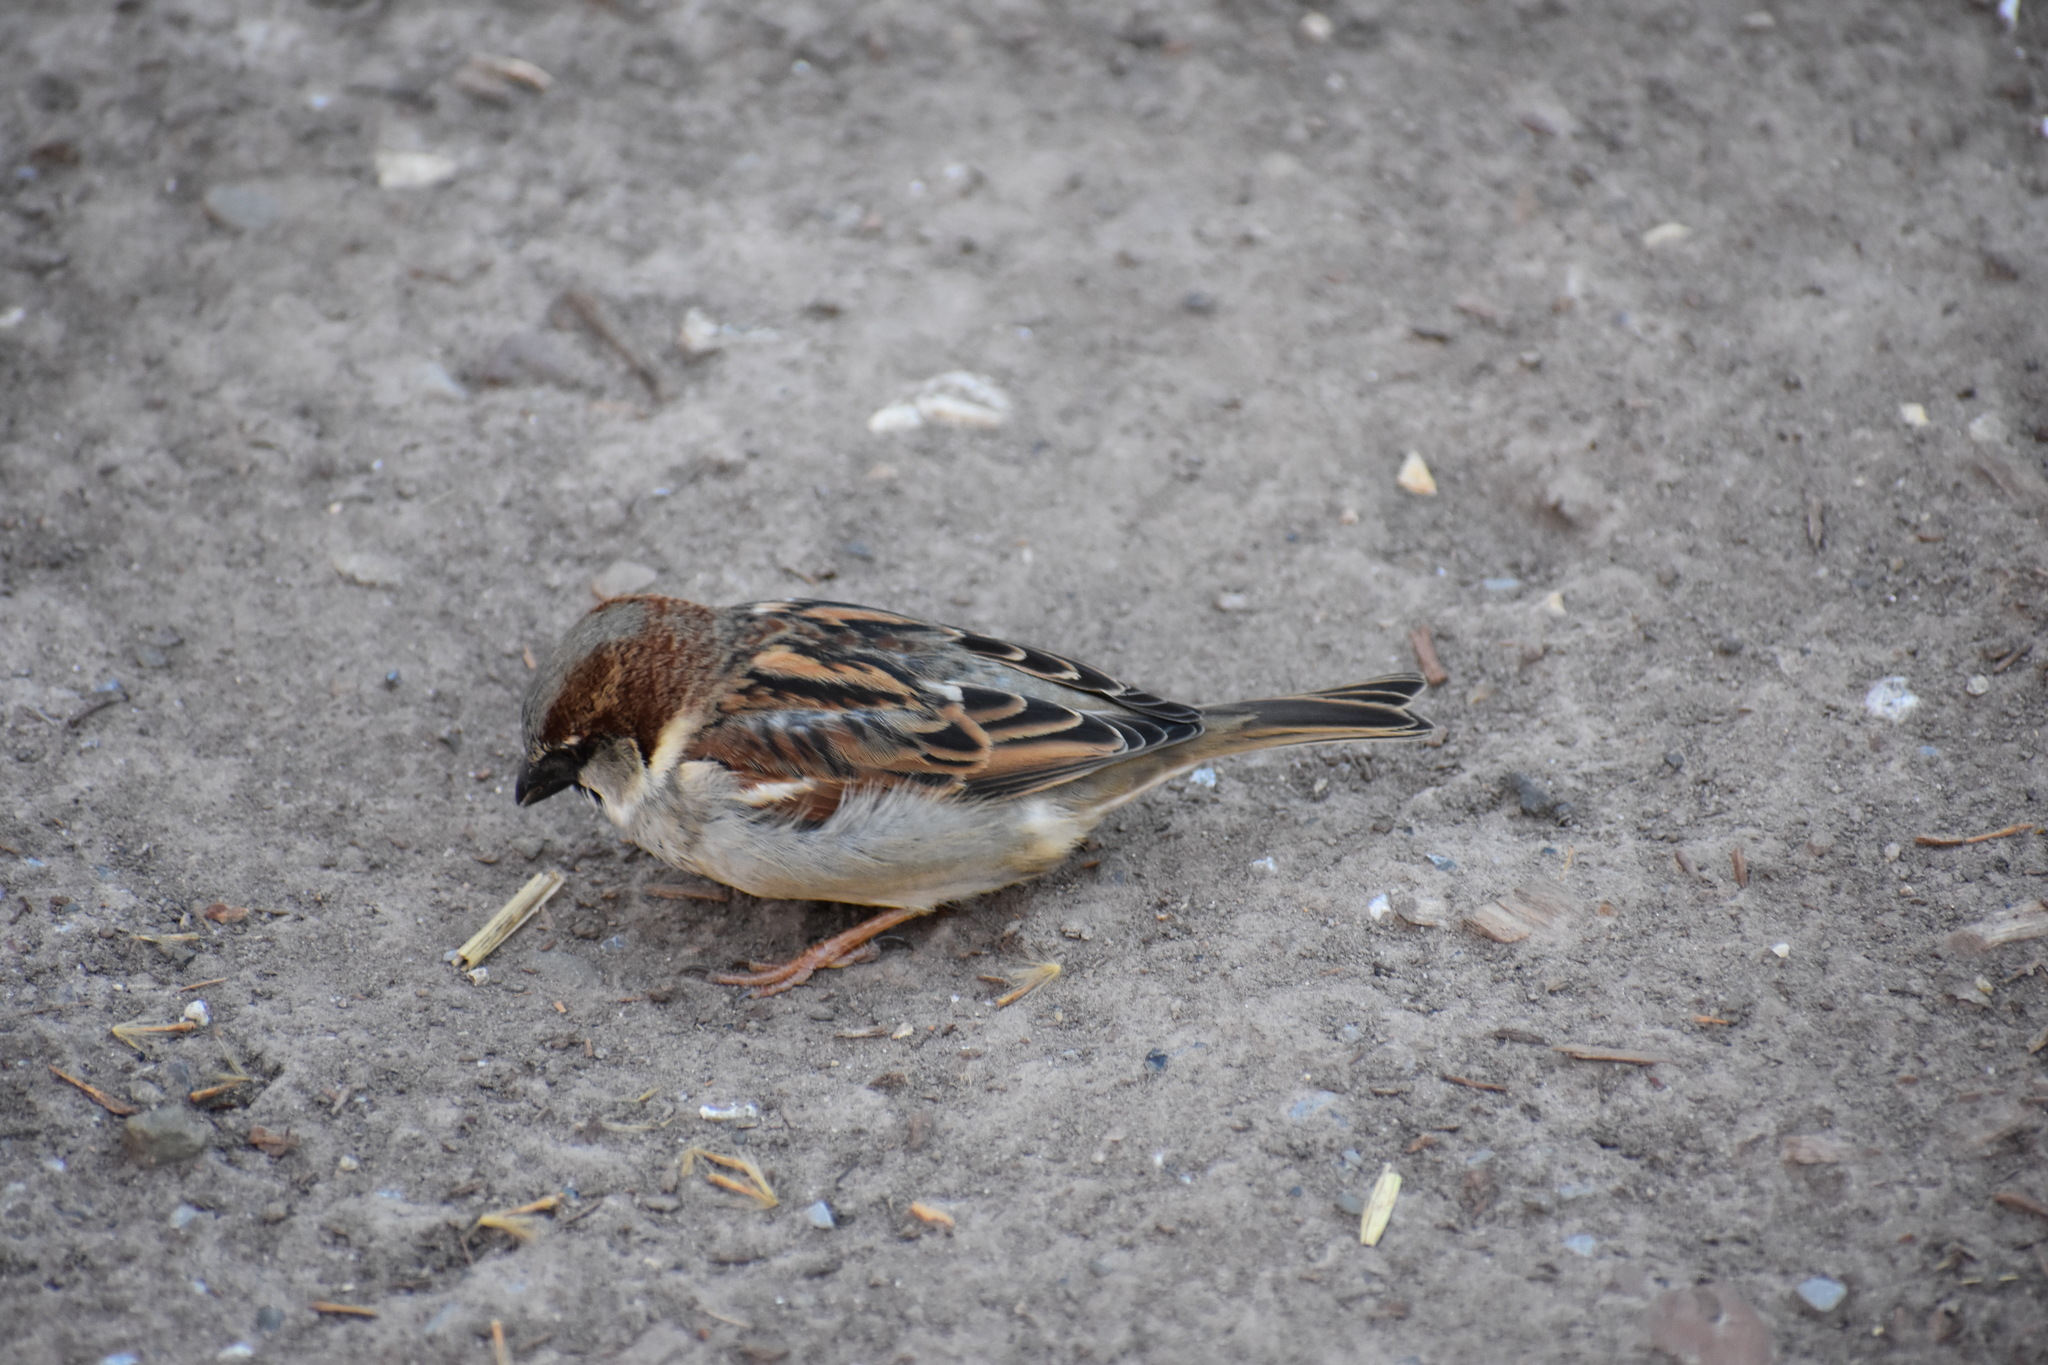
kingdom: Animalia
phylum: Chordata
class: Aves
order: Passeriformes
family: Passeridae
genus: Passer
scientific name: Passer domesticus
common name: House sparrow
